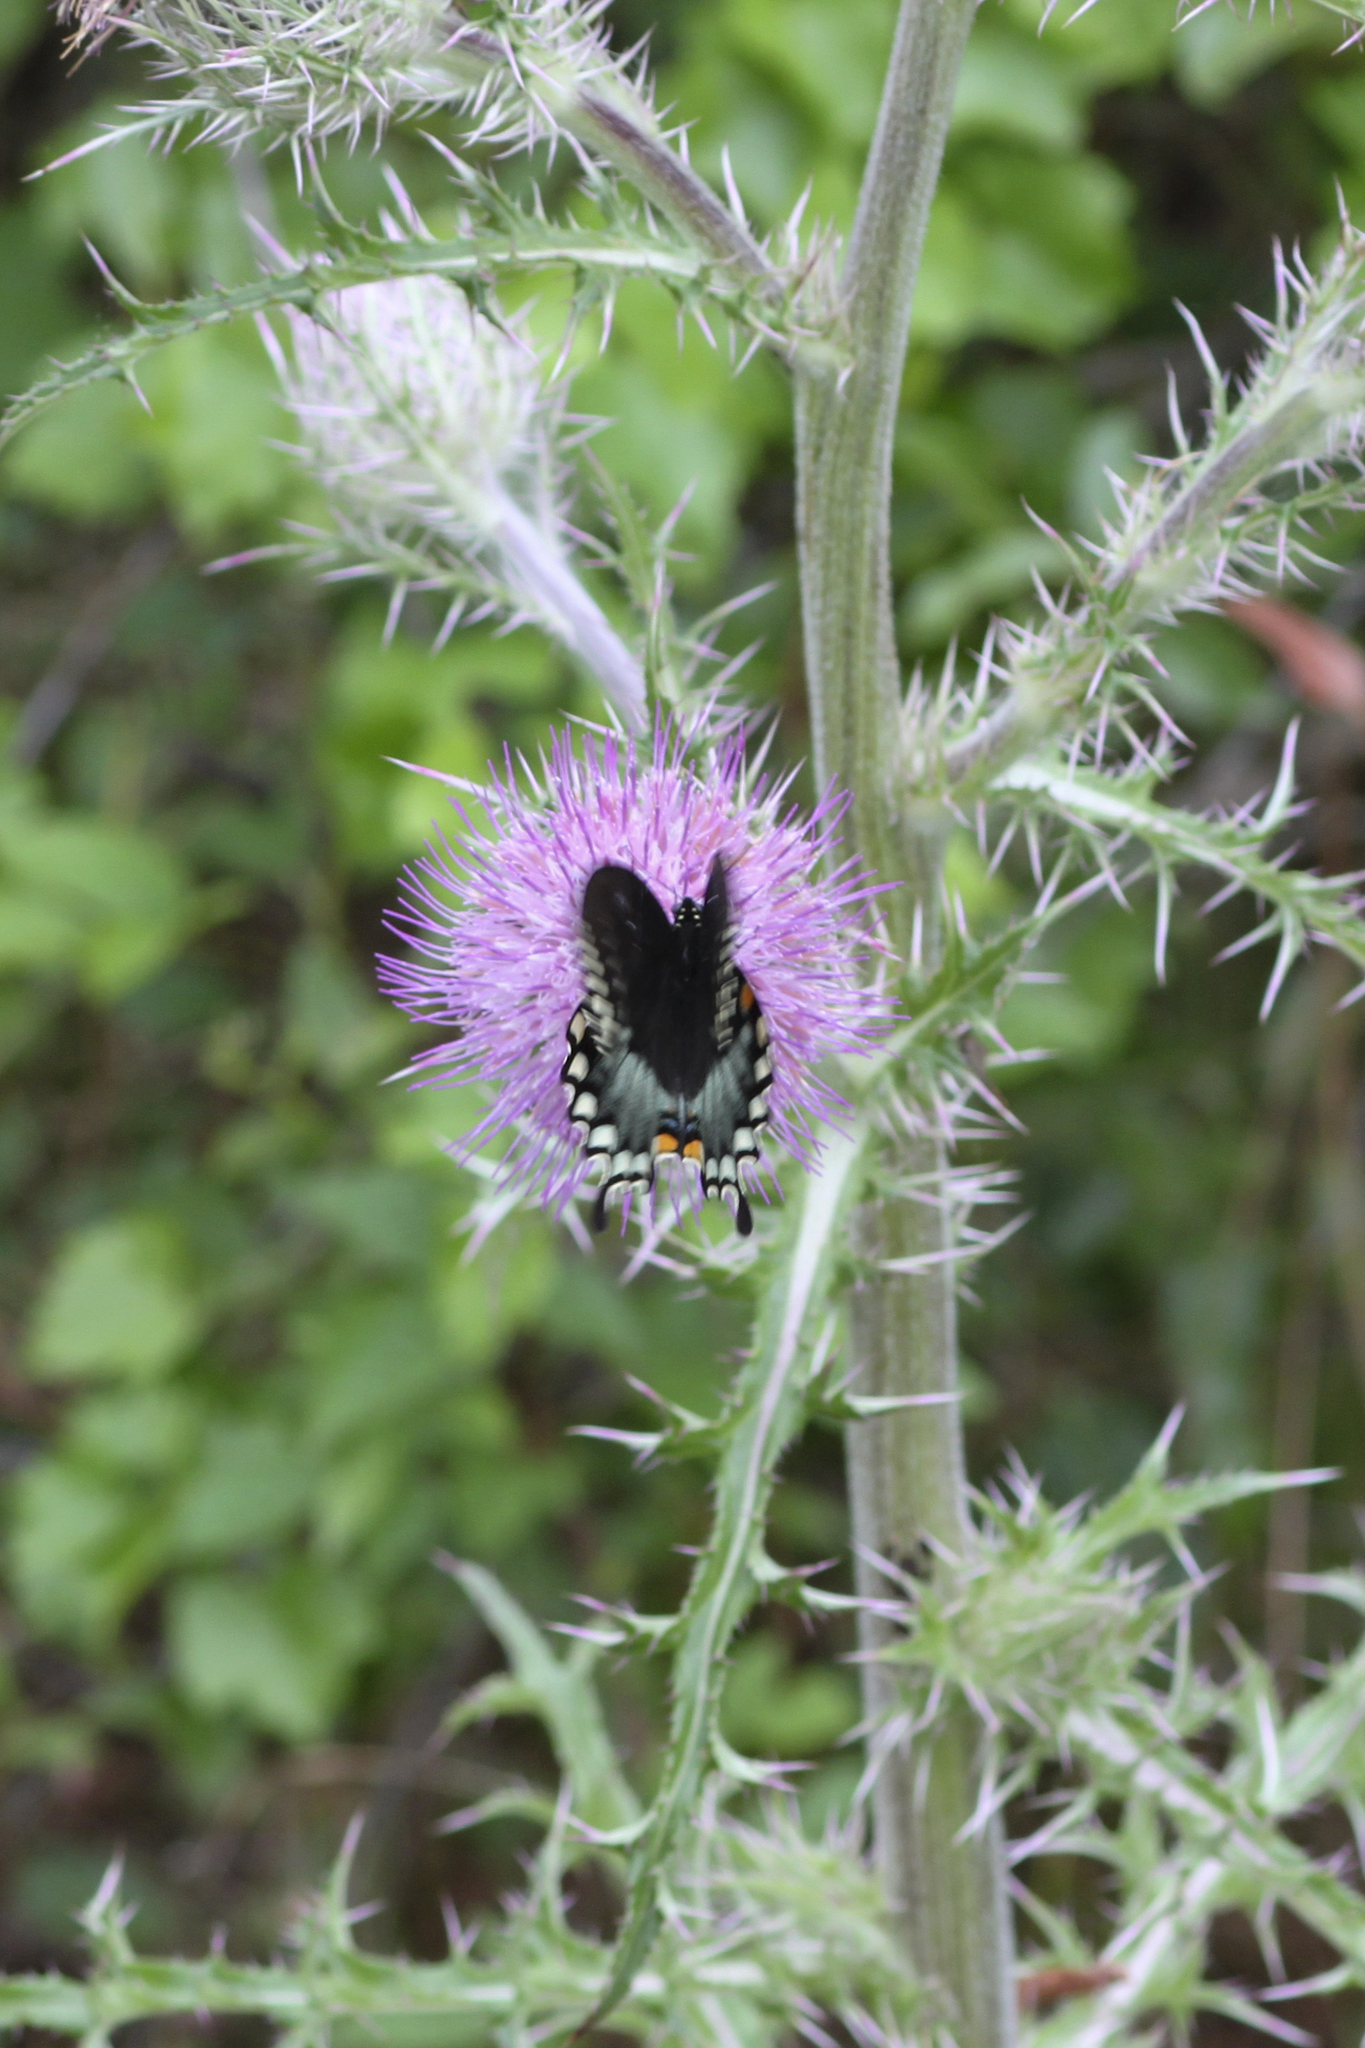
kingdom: Animalia
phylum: Arthropoda
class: Insecta
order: Lepidoptera
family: Papilionidae
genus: Papilio
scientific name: Papilio troilus
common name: Spicebush swallowtail
